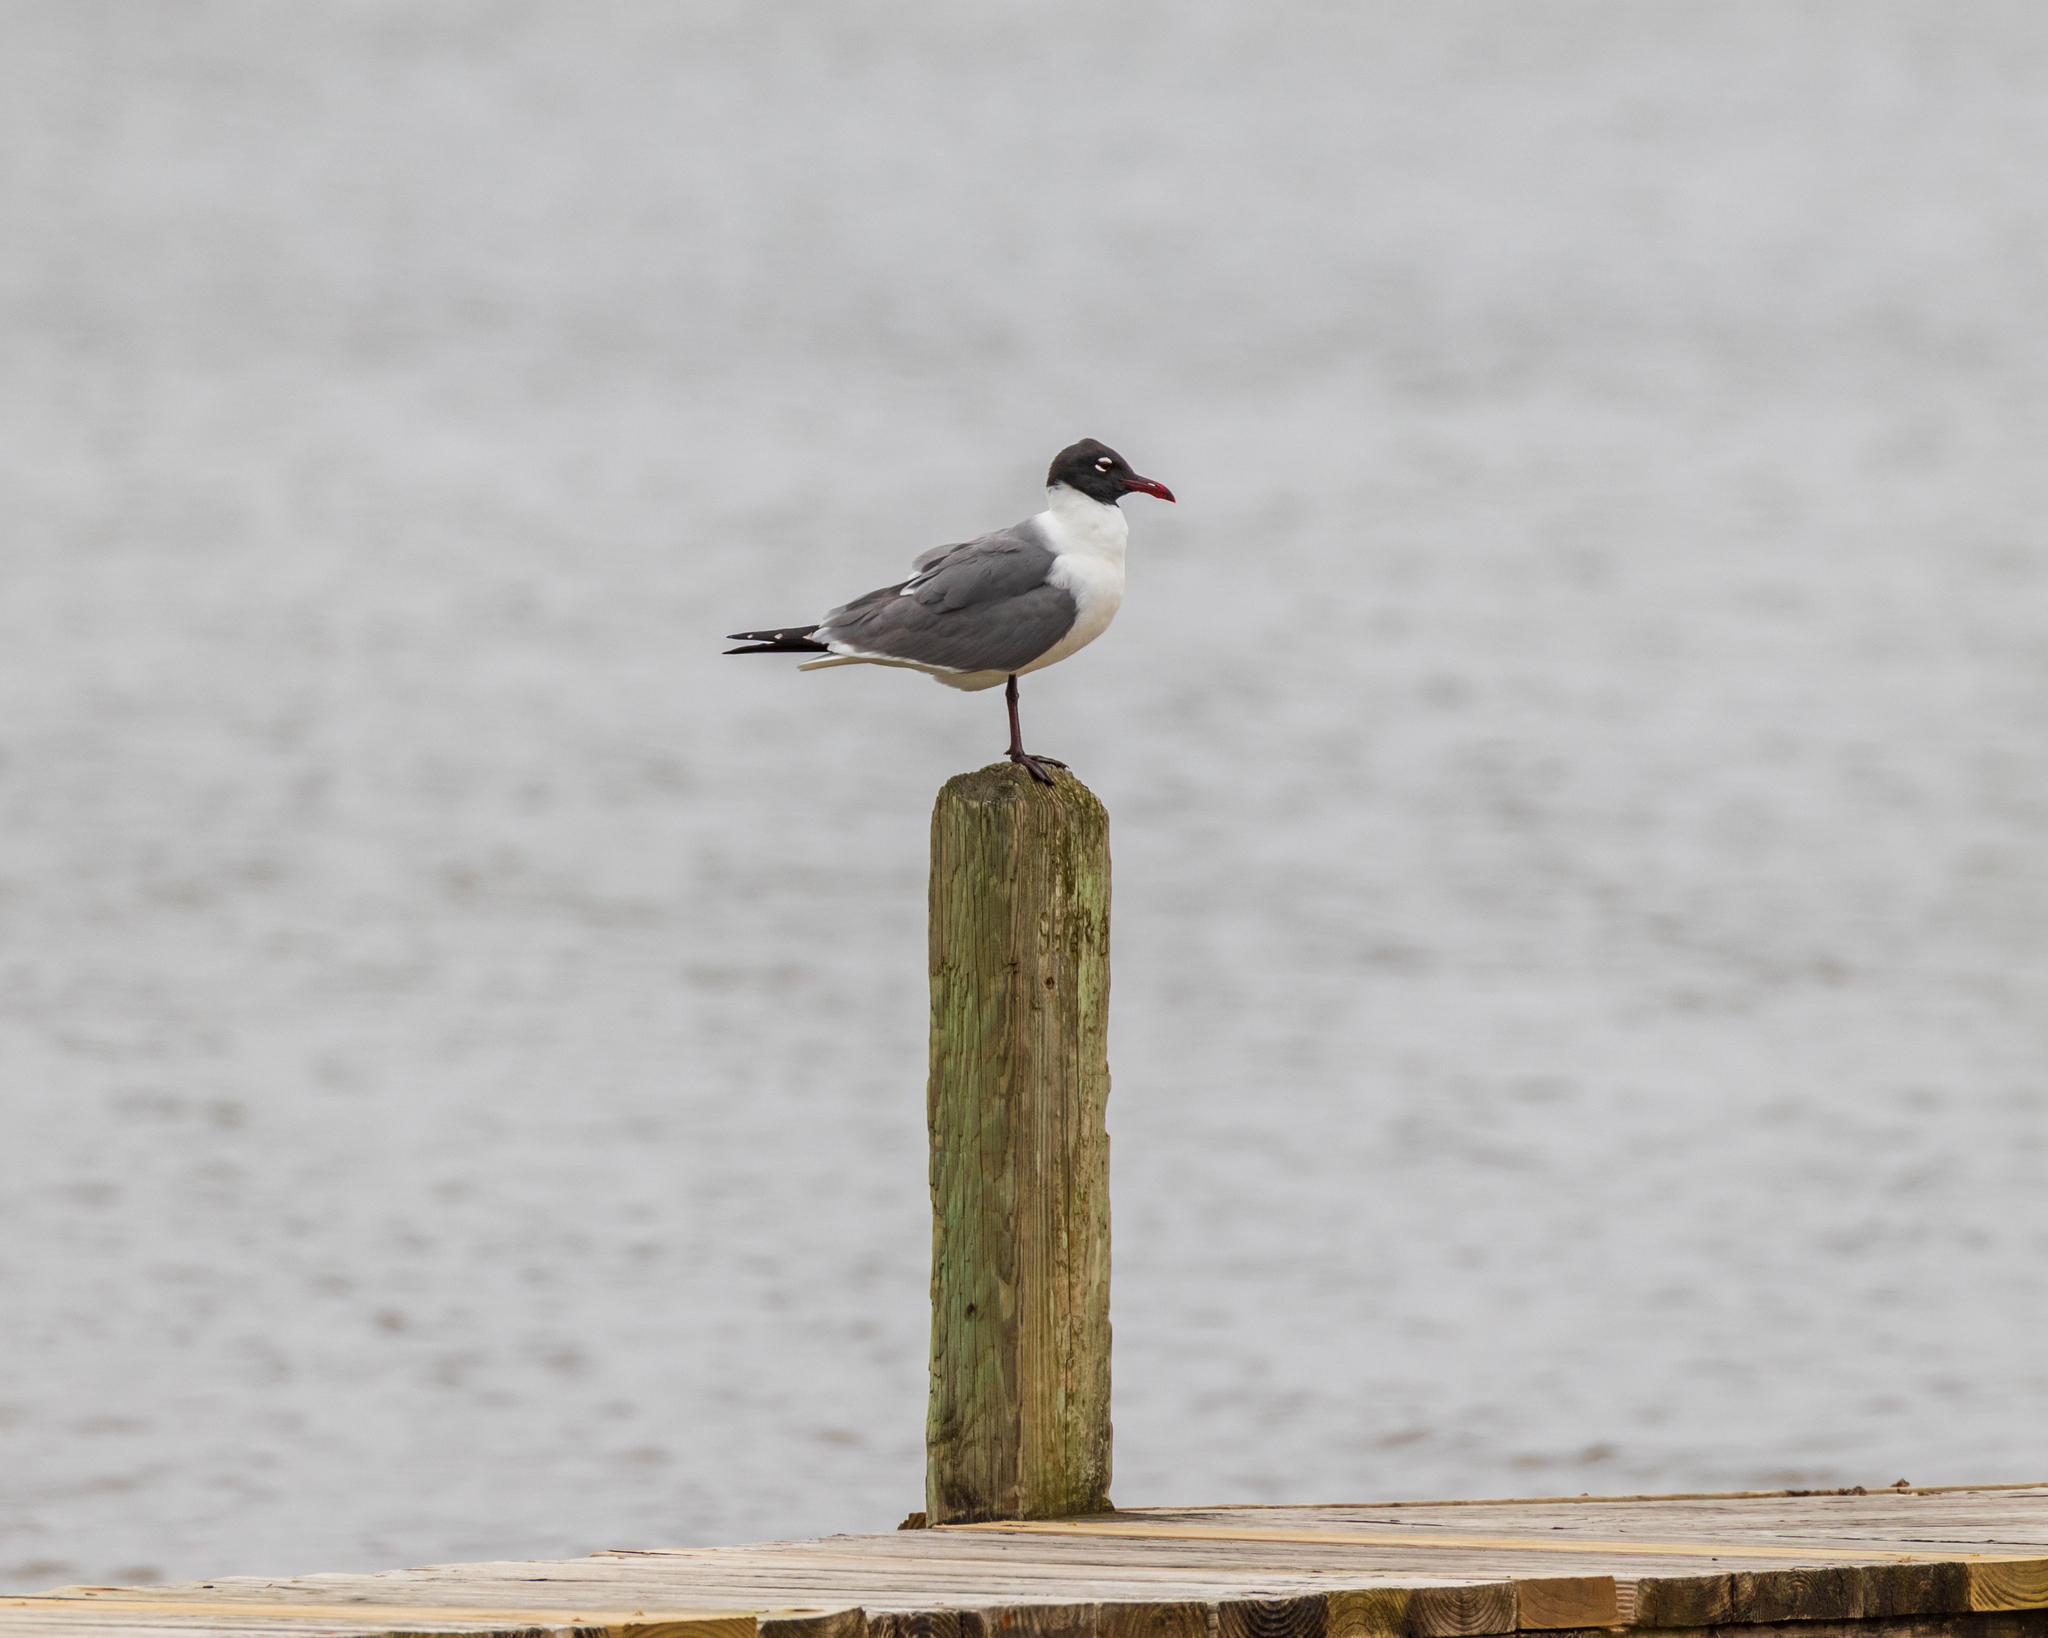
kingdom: Animalia
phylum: Chordata
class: Aves
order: Charadriiformes
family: Laridae
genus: Leucophaeus
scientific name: Leucophaeus atricilla
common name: Laughing gull
